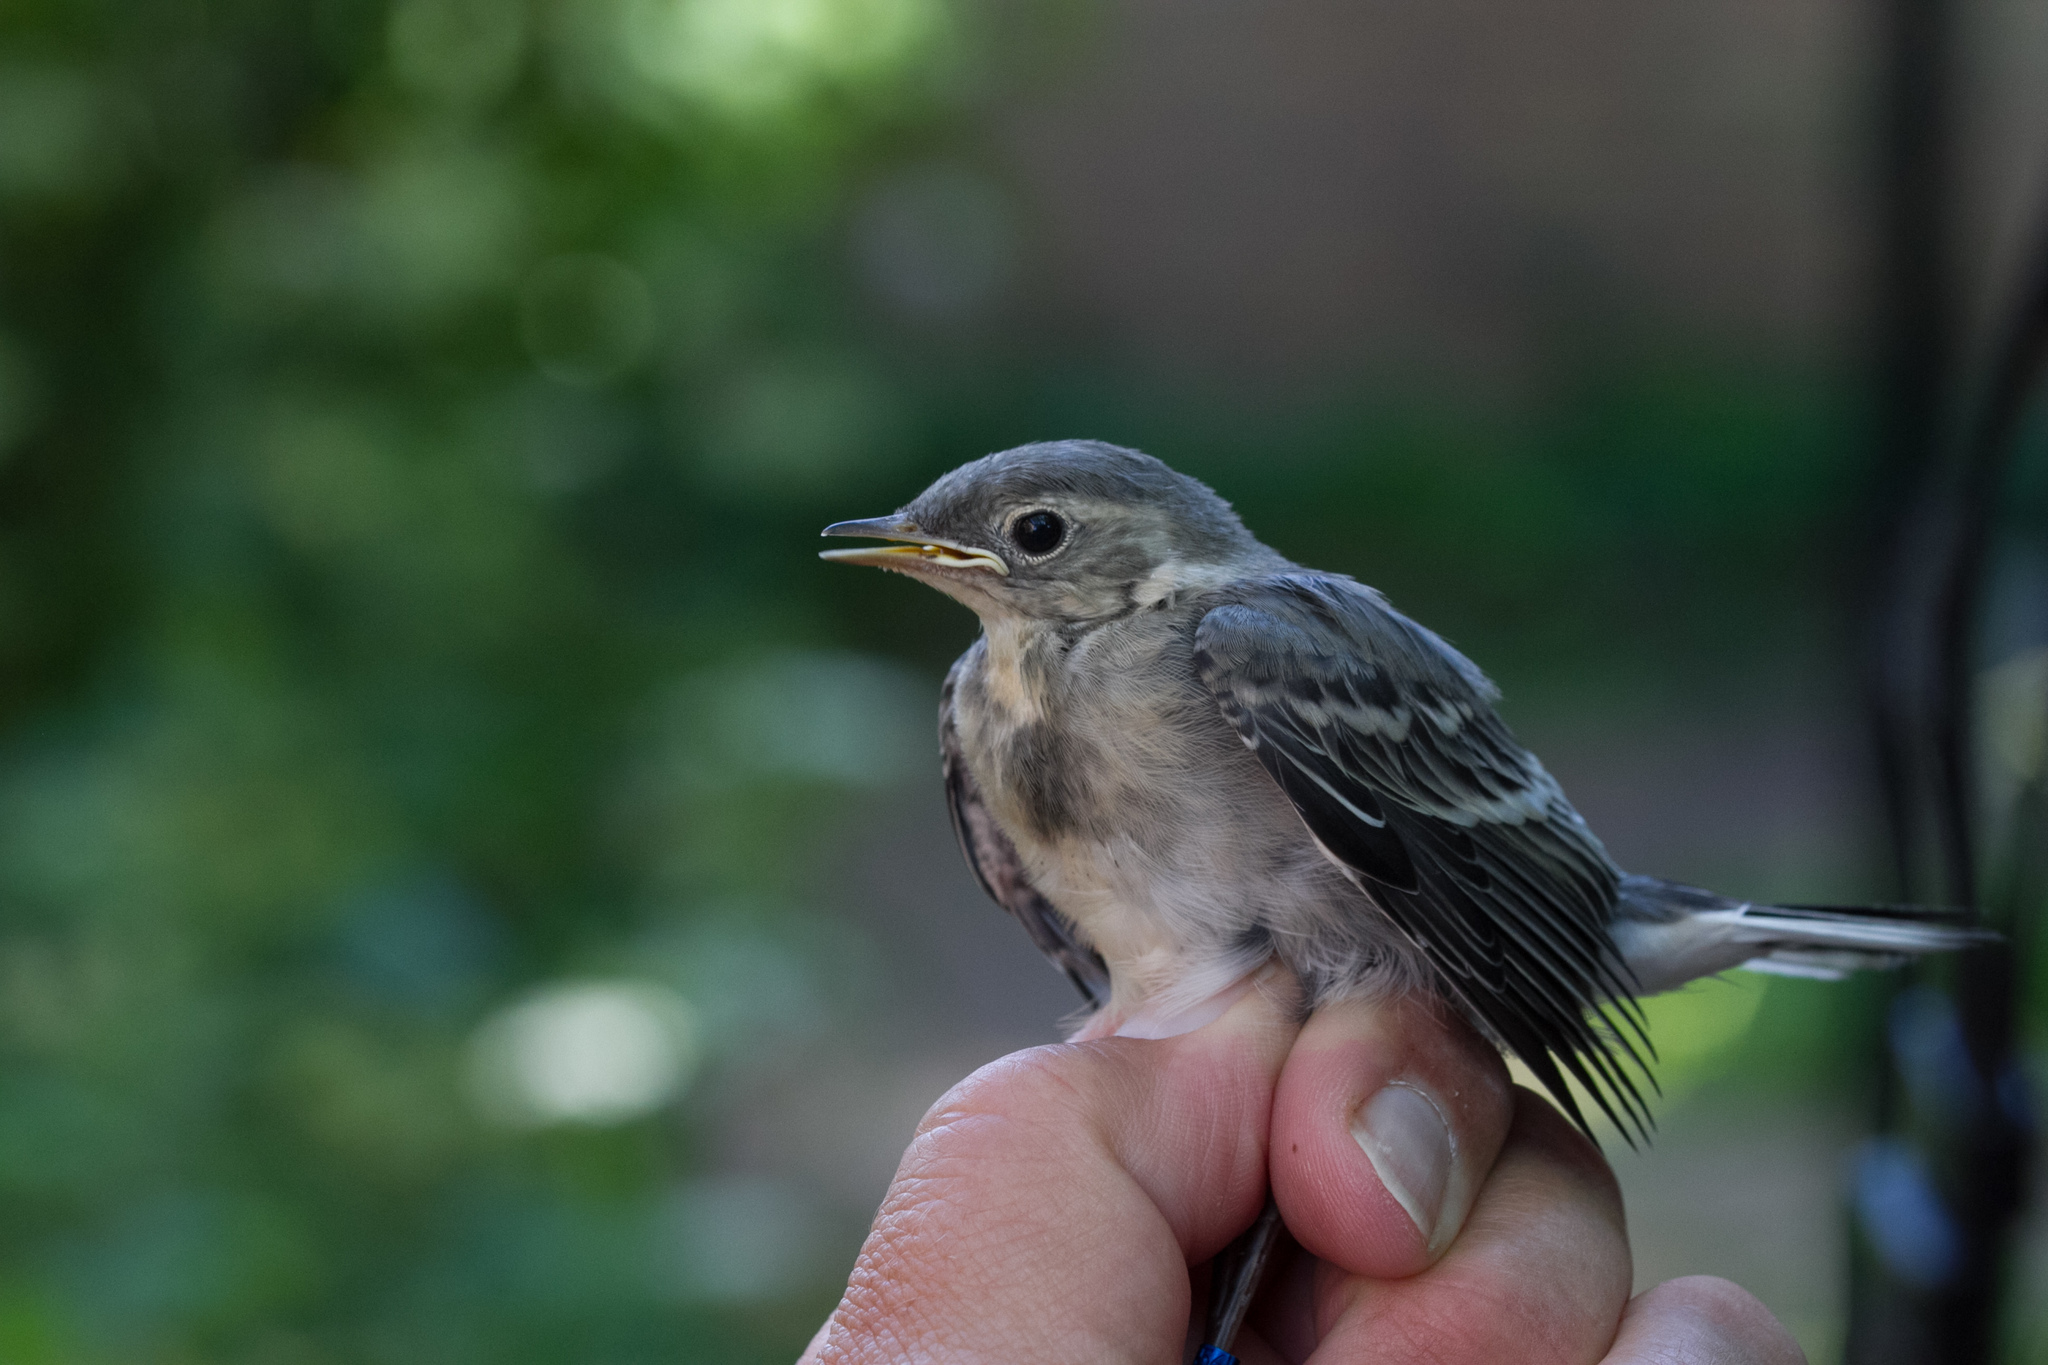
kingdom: Animalia
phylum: Chordata
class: Aves
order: Passeriformes
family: Motacillidae
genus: Motacilla
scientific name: Motacilla alba
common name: White wagtail
